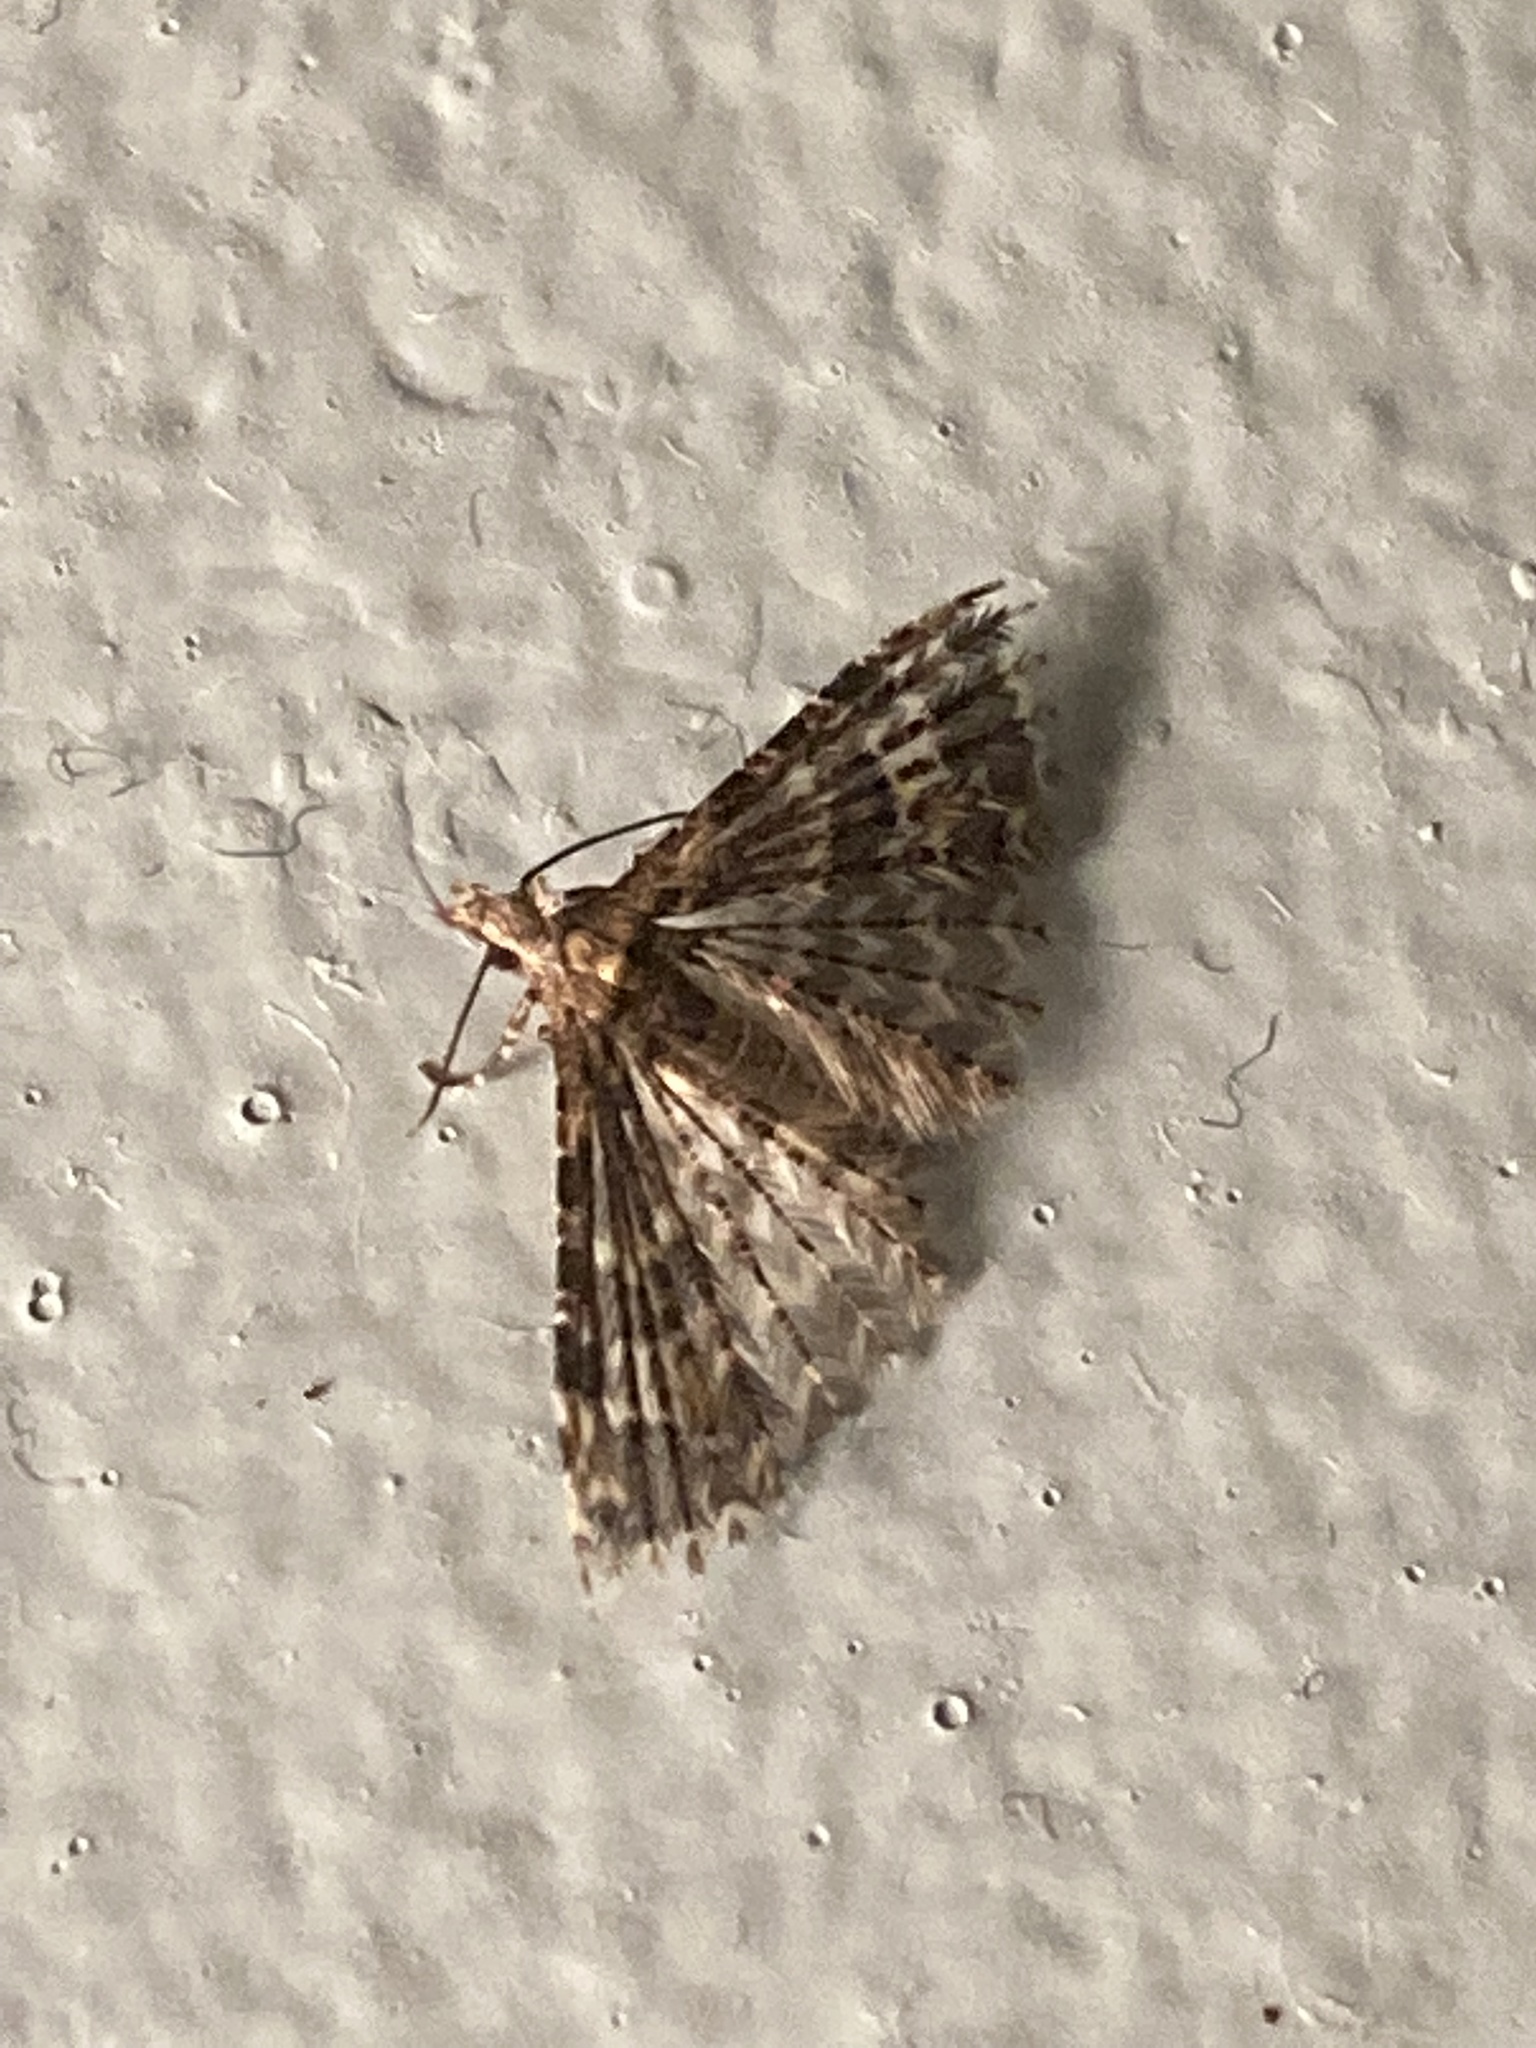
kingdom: Animalia
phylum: Arthropoda
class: Insecta
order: Lepidoptera
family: Alucitidae
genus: Alucita
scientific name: Alucita montana
